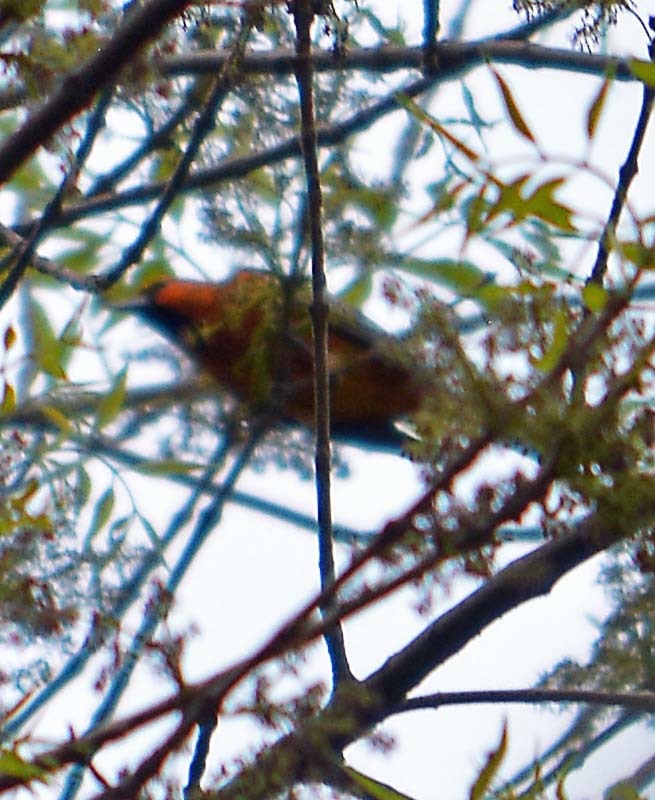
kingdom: Animalia
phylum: Chordata
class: Aves
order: Passeriformes
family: Icteridae
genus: Icterus
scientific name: Icterus bullockii
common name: Bullock's oriole
